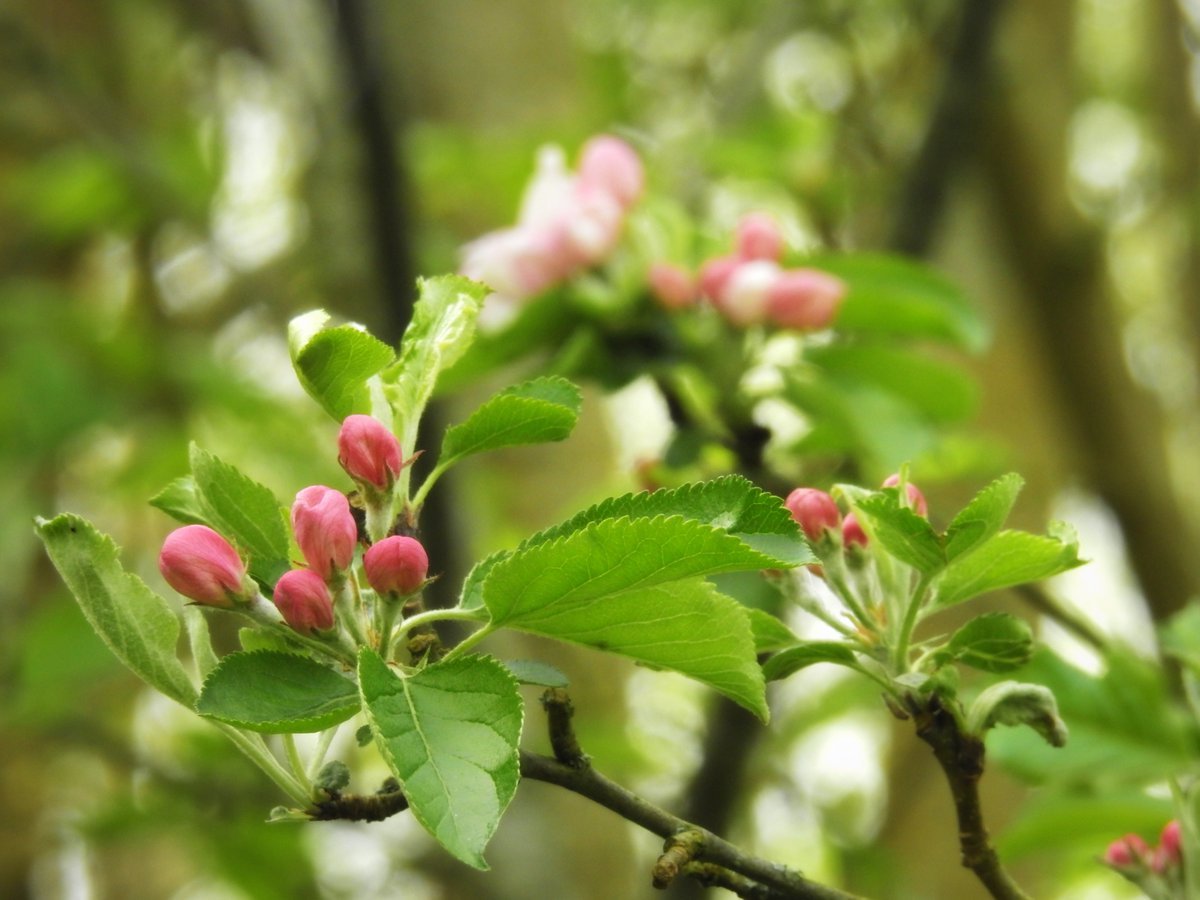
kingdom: Plantae
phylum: Tracheophyta
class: Magnoliopsida
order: Rosales
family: Rosaceae
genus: Malus
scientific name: Malus domestica
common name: Apple
